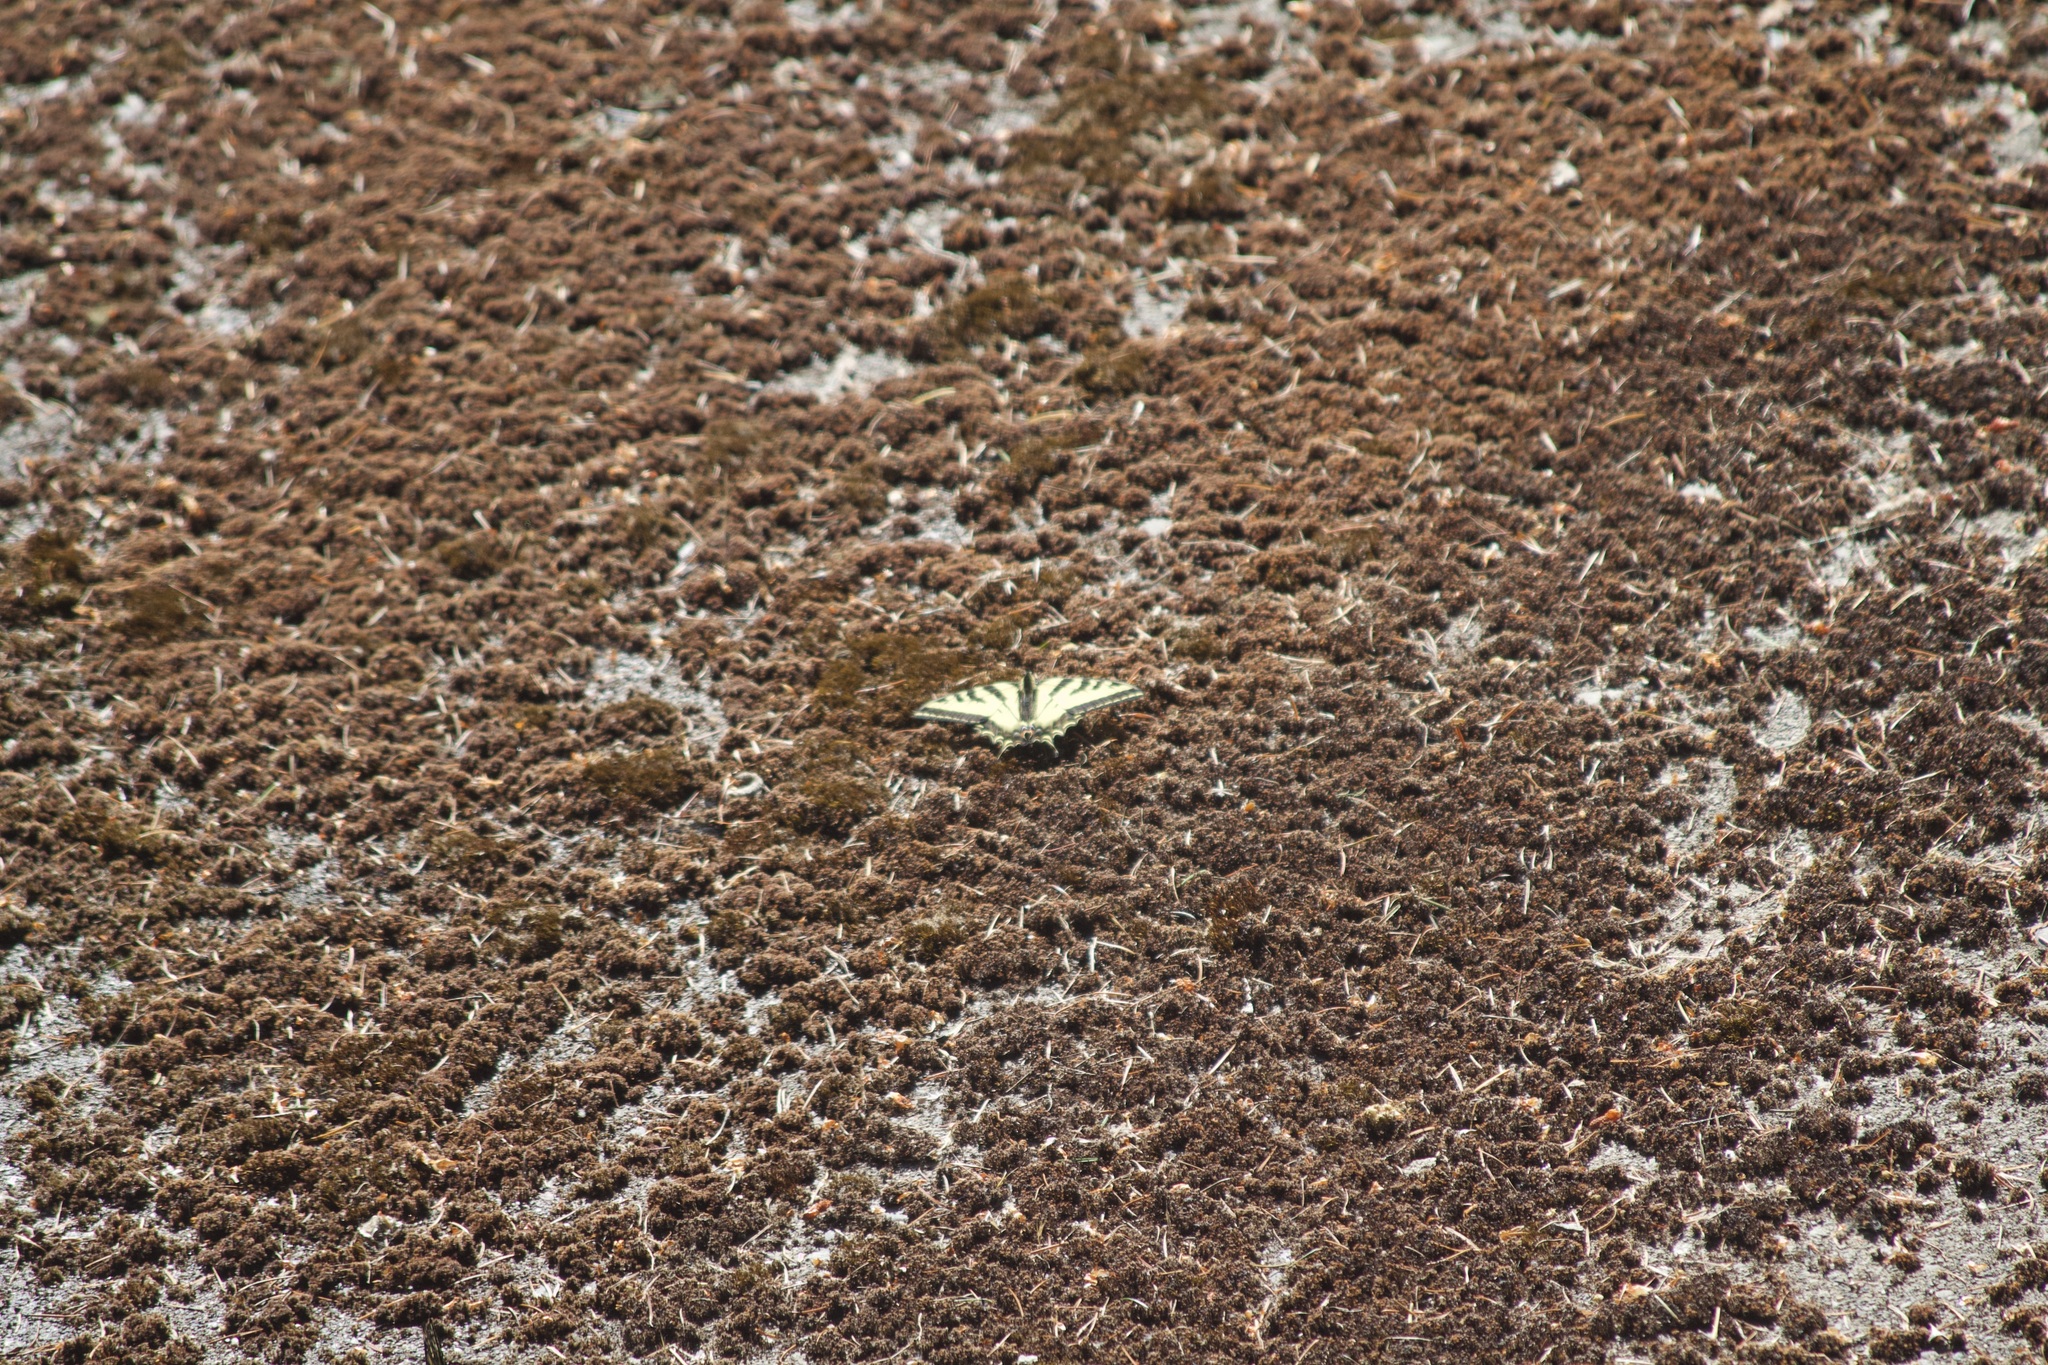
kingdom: Animalia
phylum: Arthropoda
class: Insecta
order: Lepidoptera
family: Papilionidae
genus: Papilio
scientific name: Papilio rutulus
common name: Western tiger swallowtail
